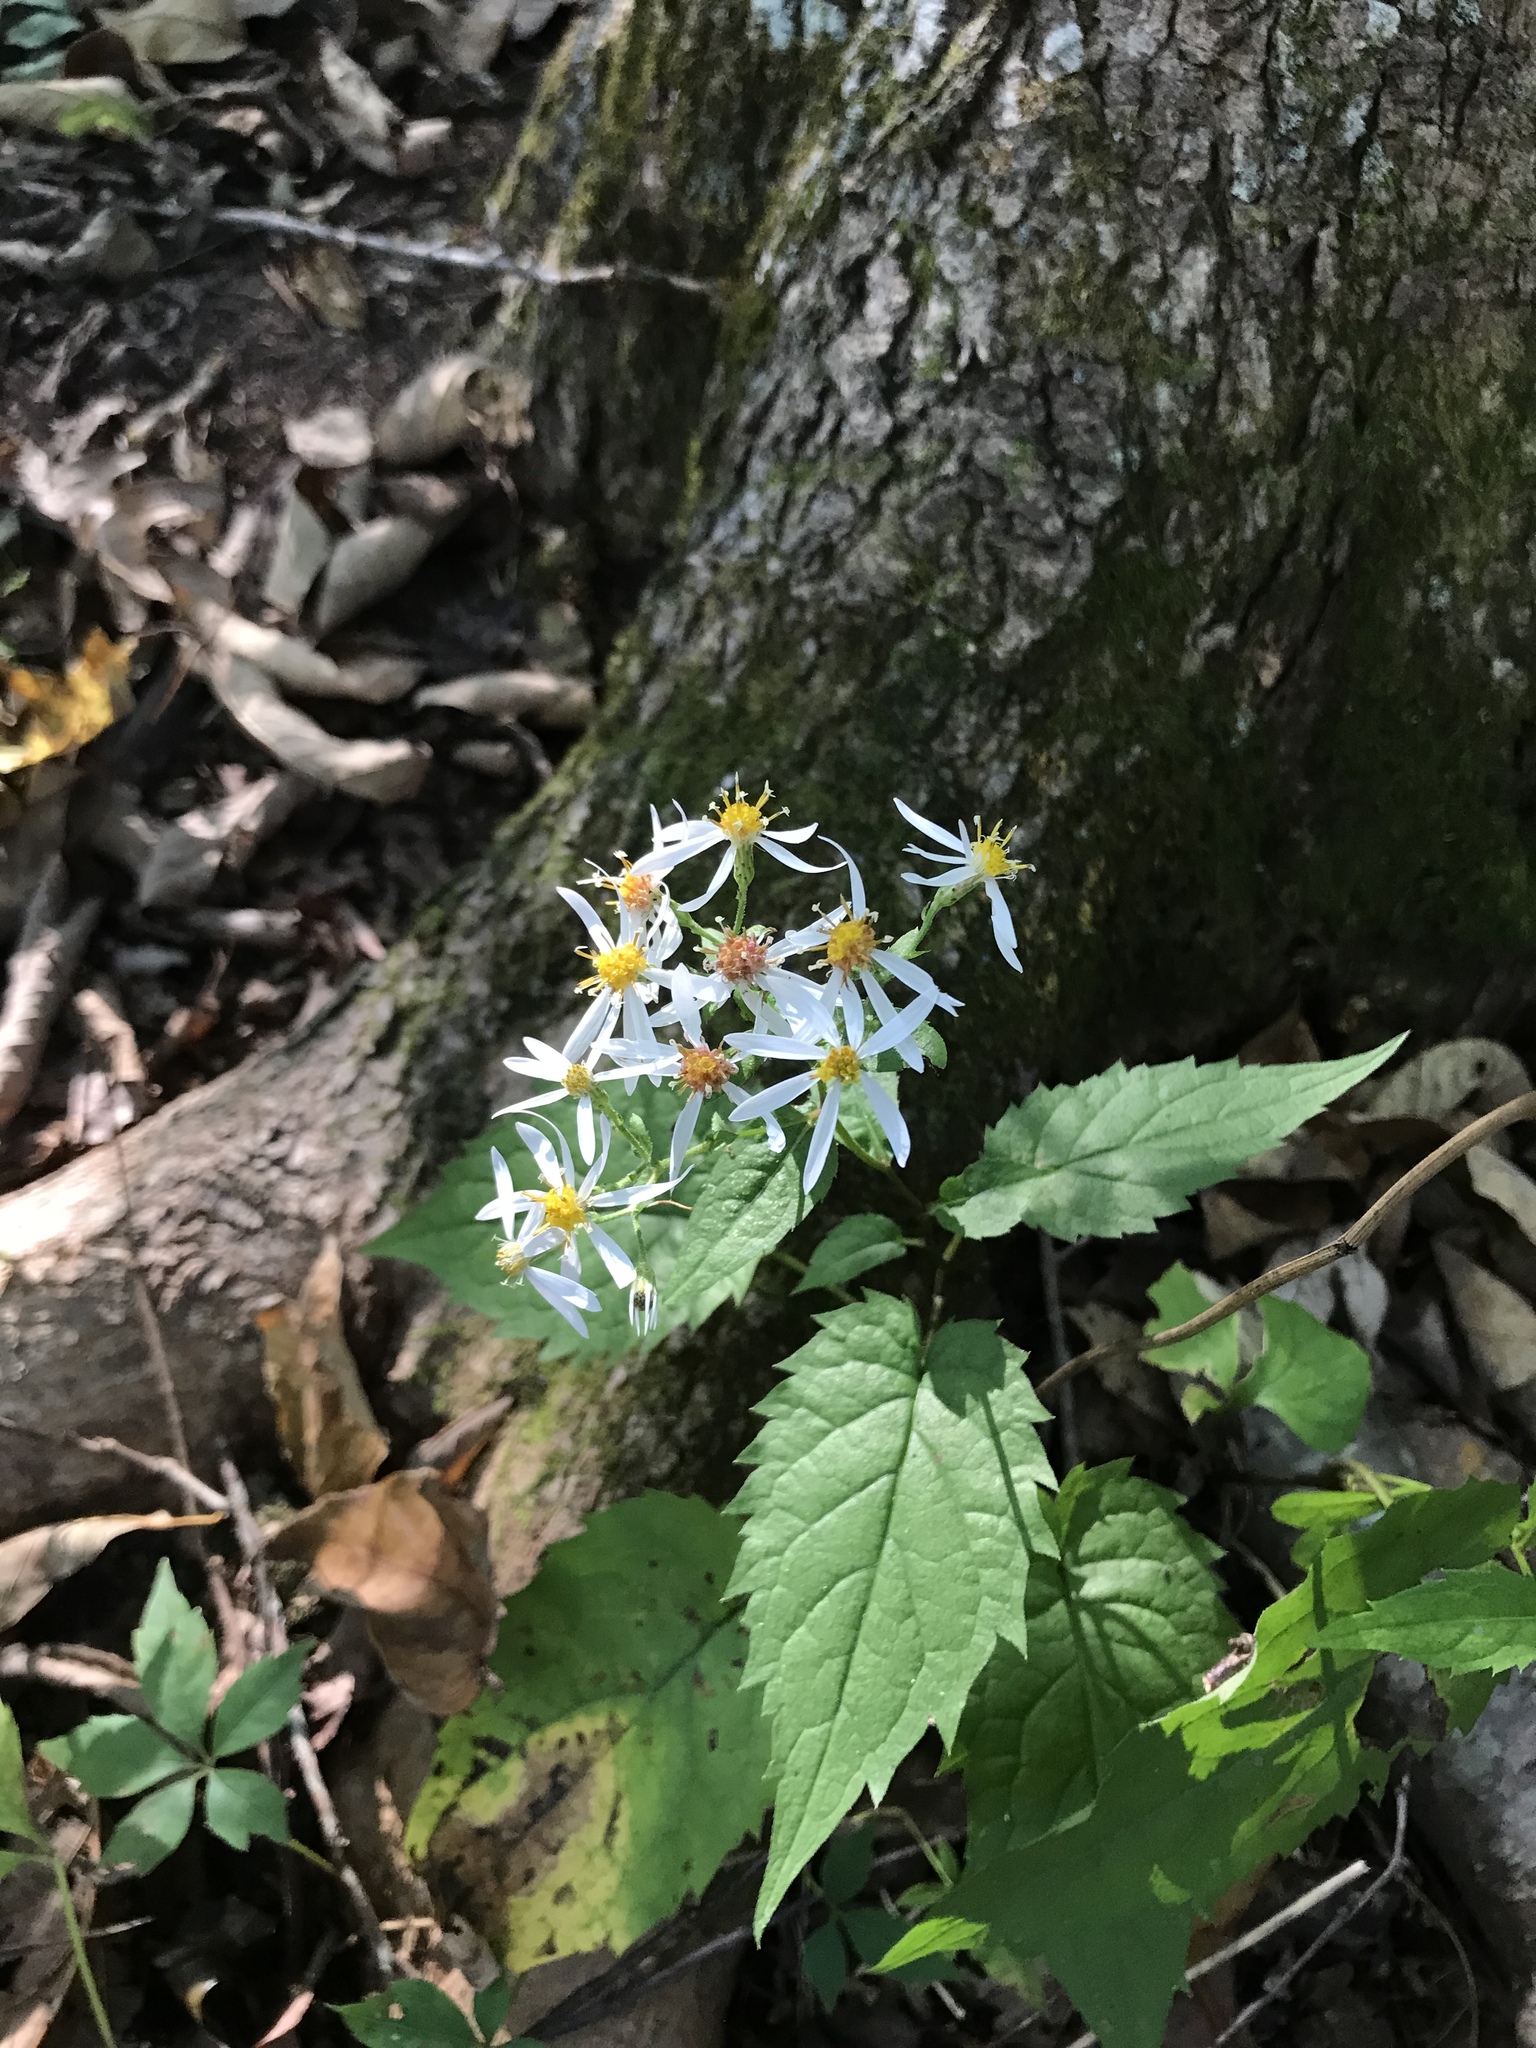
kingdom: Plantae
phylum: Tracheophyta
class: Magnoliopsida
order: Asterales
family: Asteraceae
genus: Eurybia
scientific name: Eurybia divaricata
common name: White wood aster
